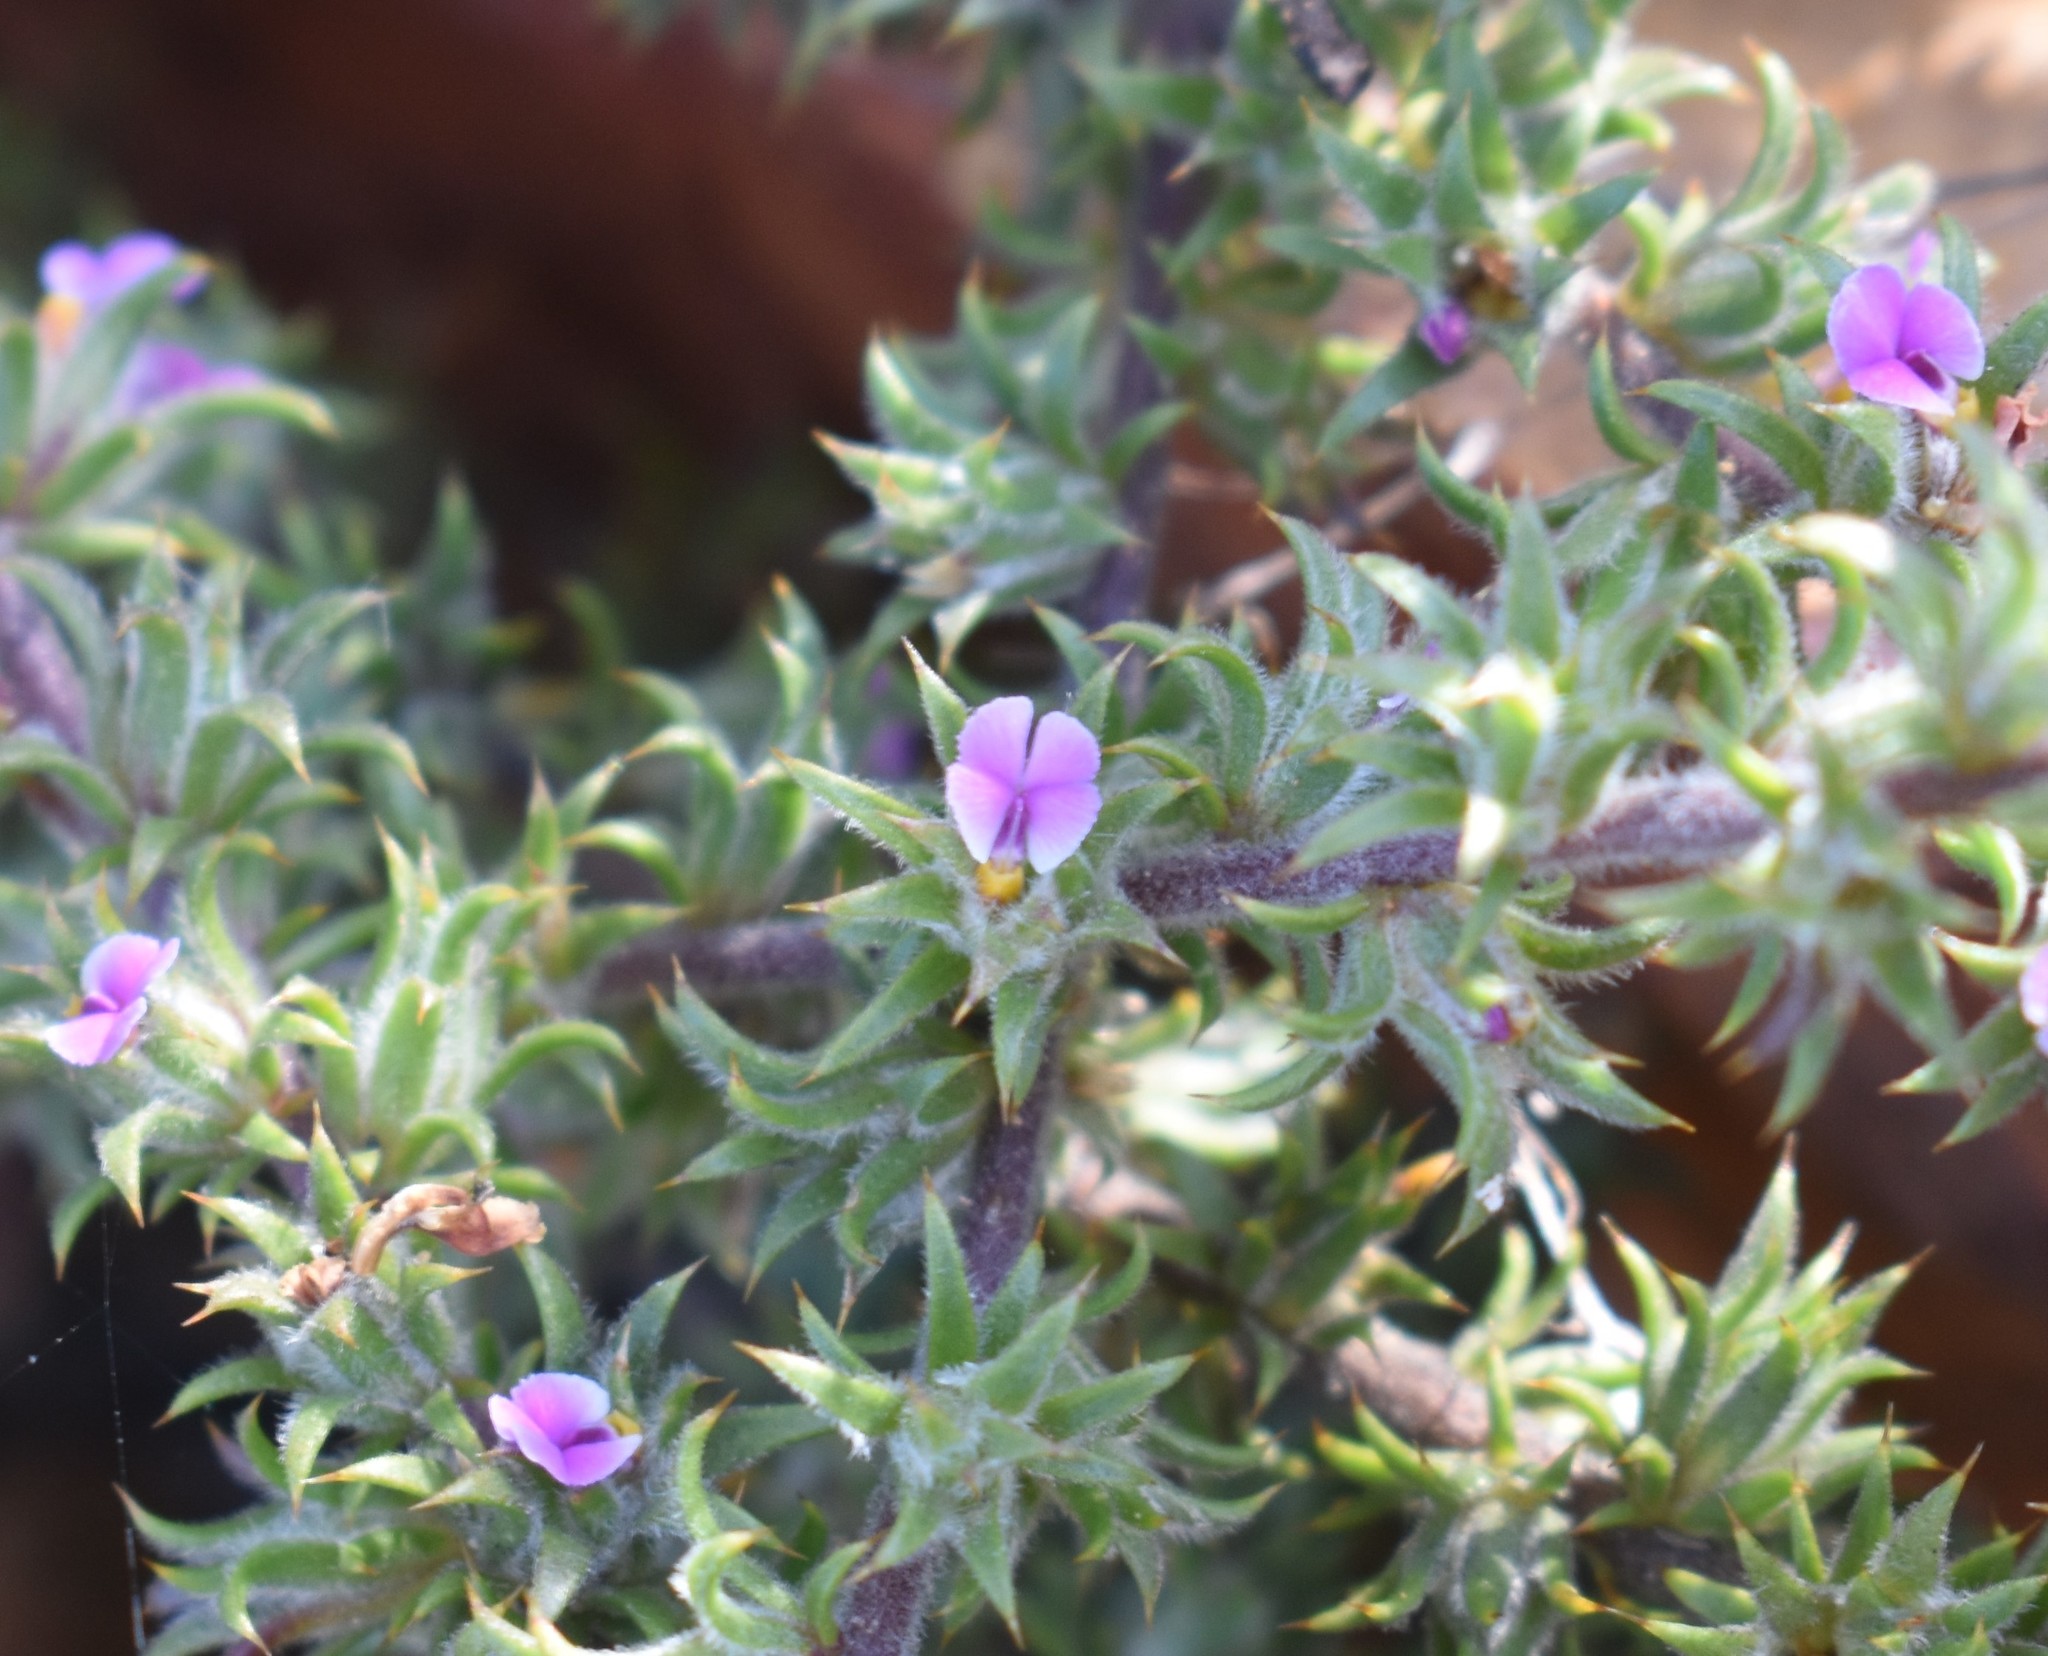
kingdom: Plantae
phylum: Tracheophyta
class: Magnoliopsida
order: Fabales
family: Polygalaceae
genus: Muraltia
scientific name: Muraltia ciliaris
